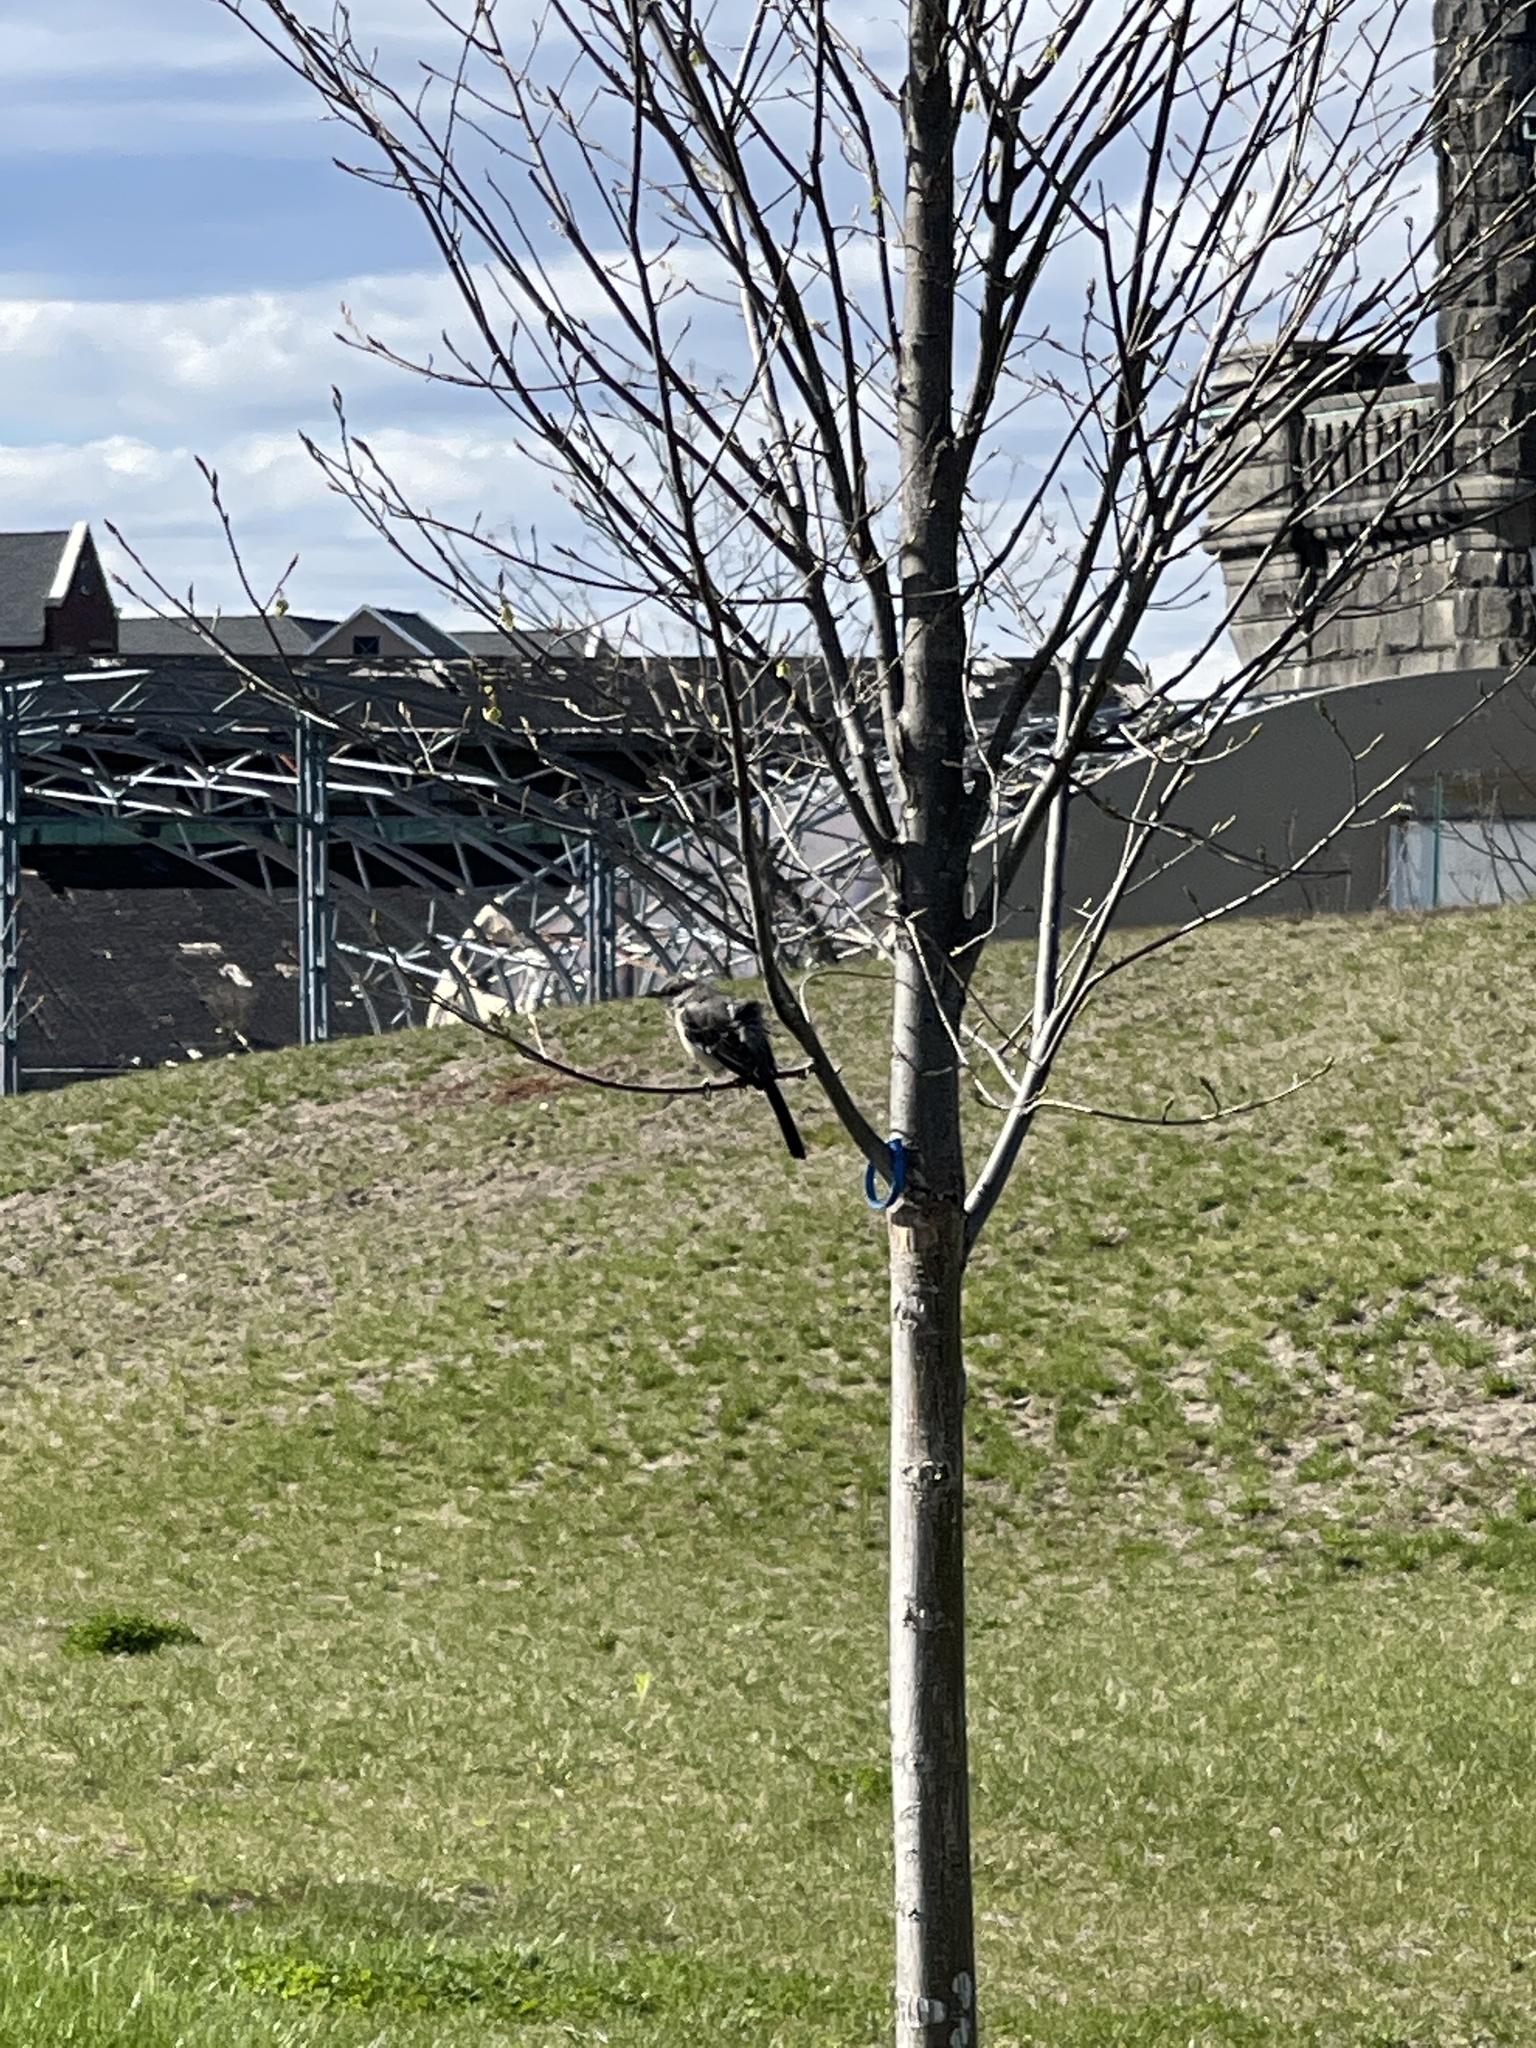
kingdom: Animalia
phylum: Chordata
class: Aves
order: Passeriformes
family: Mimidae
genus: Mimus
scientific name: Mimus polyglottos
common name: Northern mockingbird
